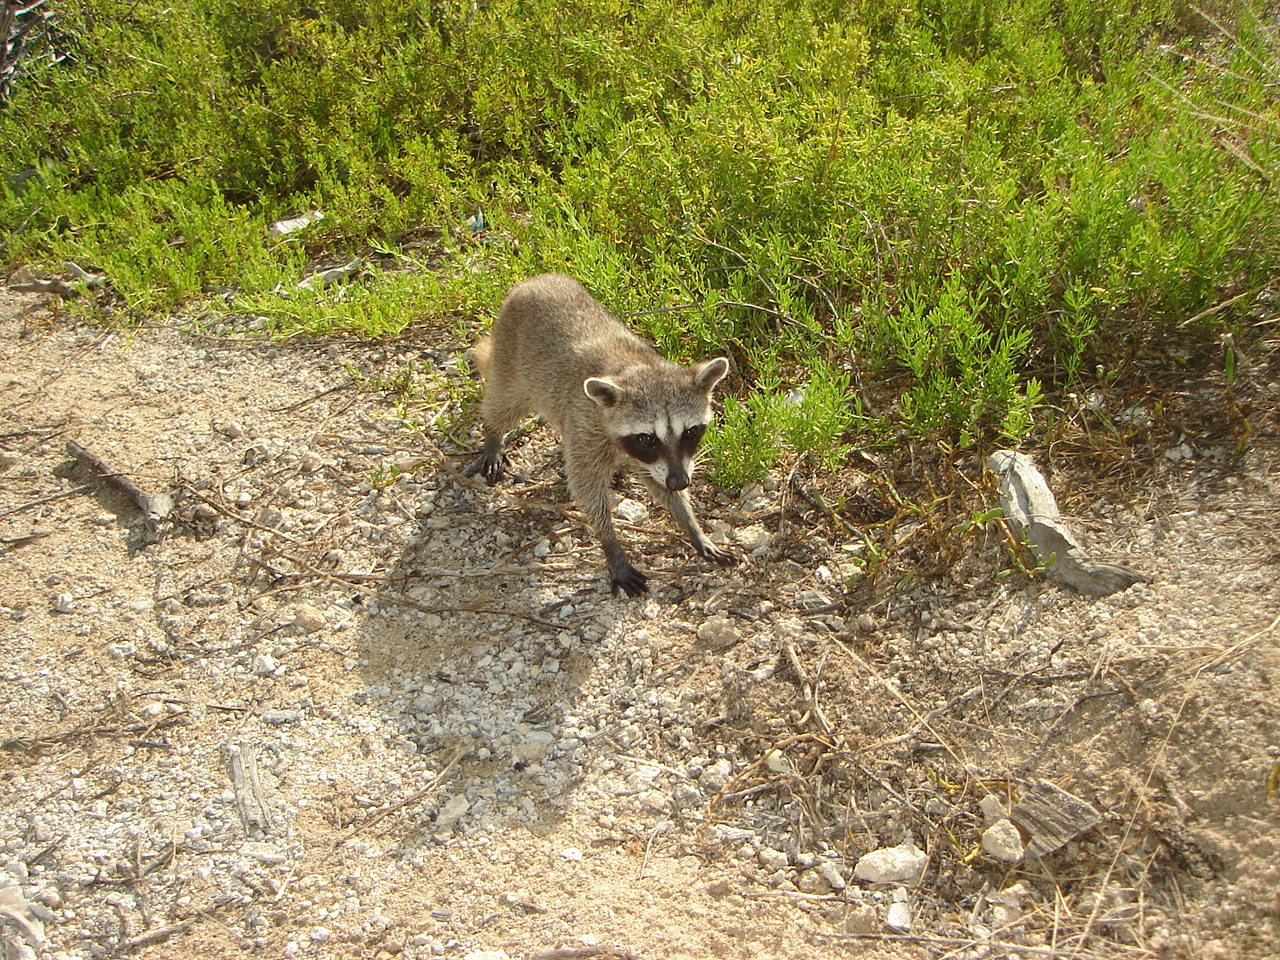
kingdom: Animalia
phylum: Chordata
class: Mammalia
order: Carnivora
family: Procyonidae
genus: Procyon
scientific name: Procyon pygmaeus
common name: Cozumel raccoon
